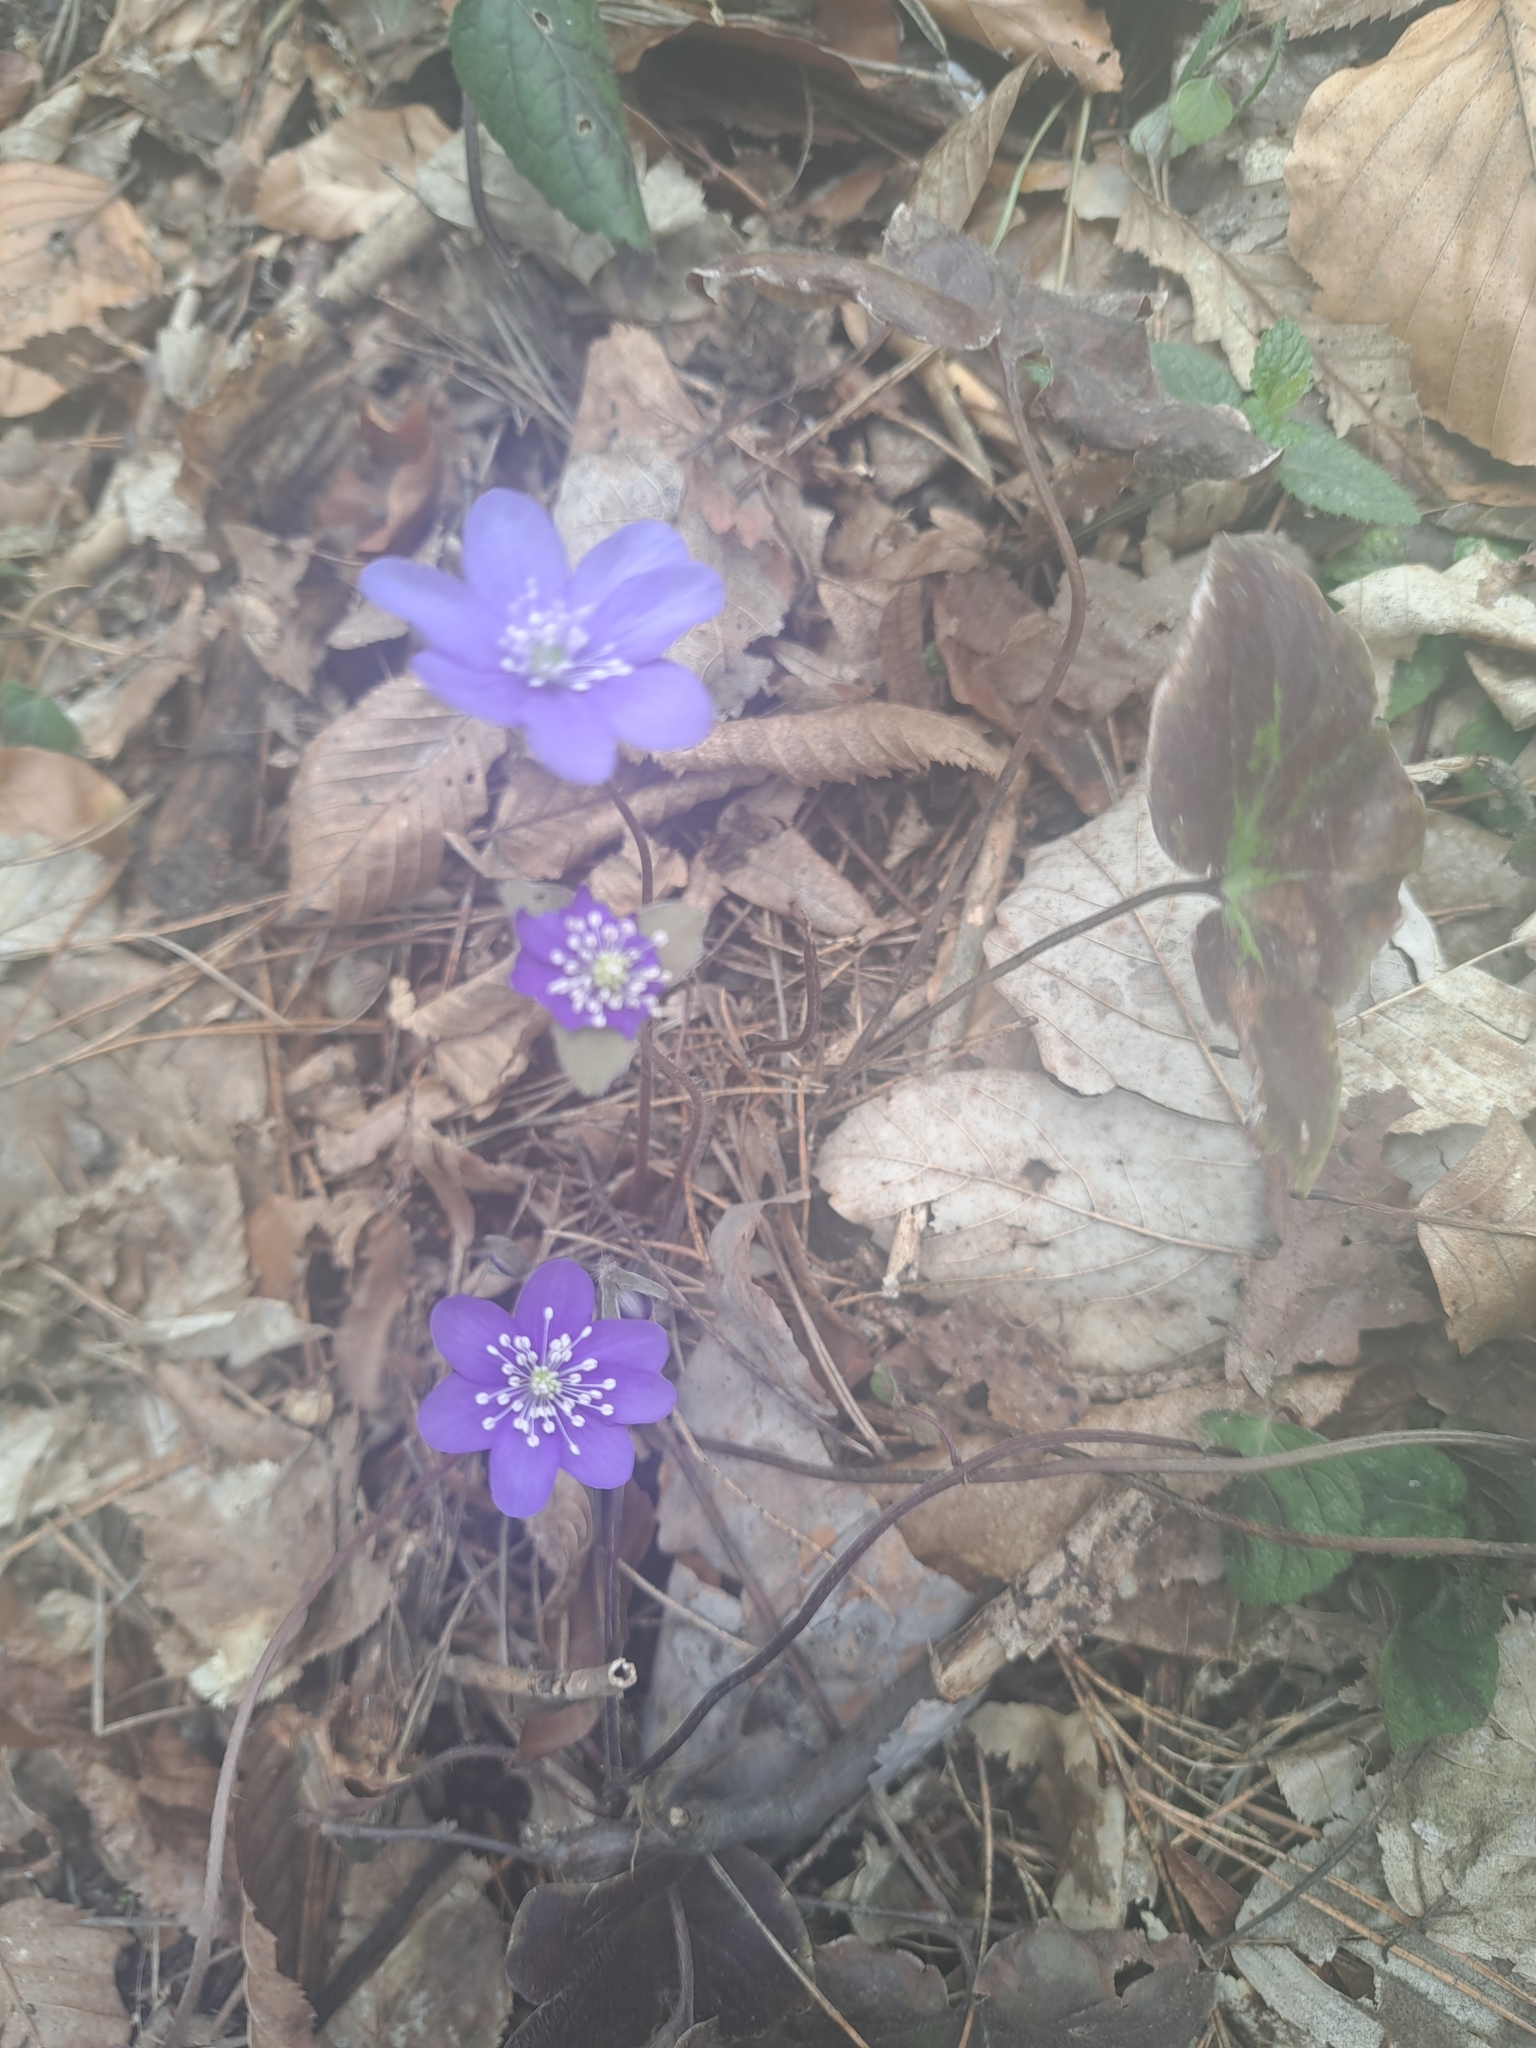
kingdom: Plantae
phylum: Tracheophyta
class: Magnoliopsida
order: Ranunculales
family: Ranunculaceae
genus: Hepatica
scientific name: Hepatica nobilis
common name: Liverleaf
